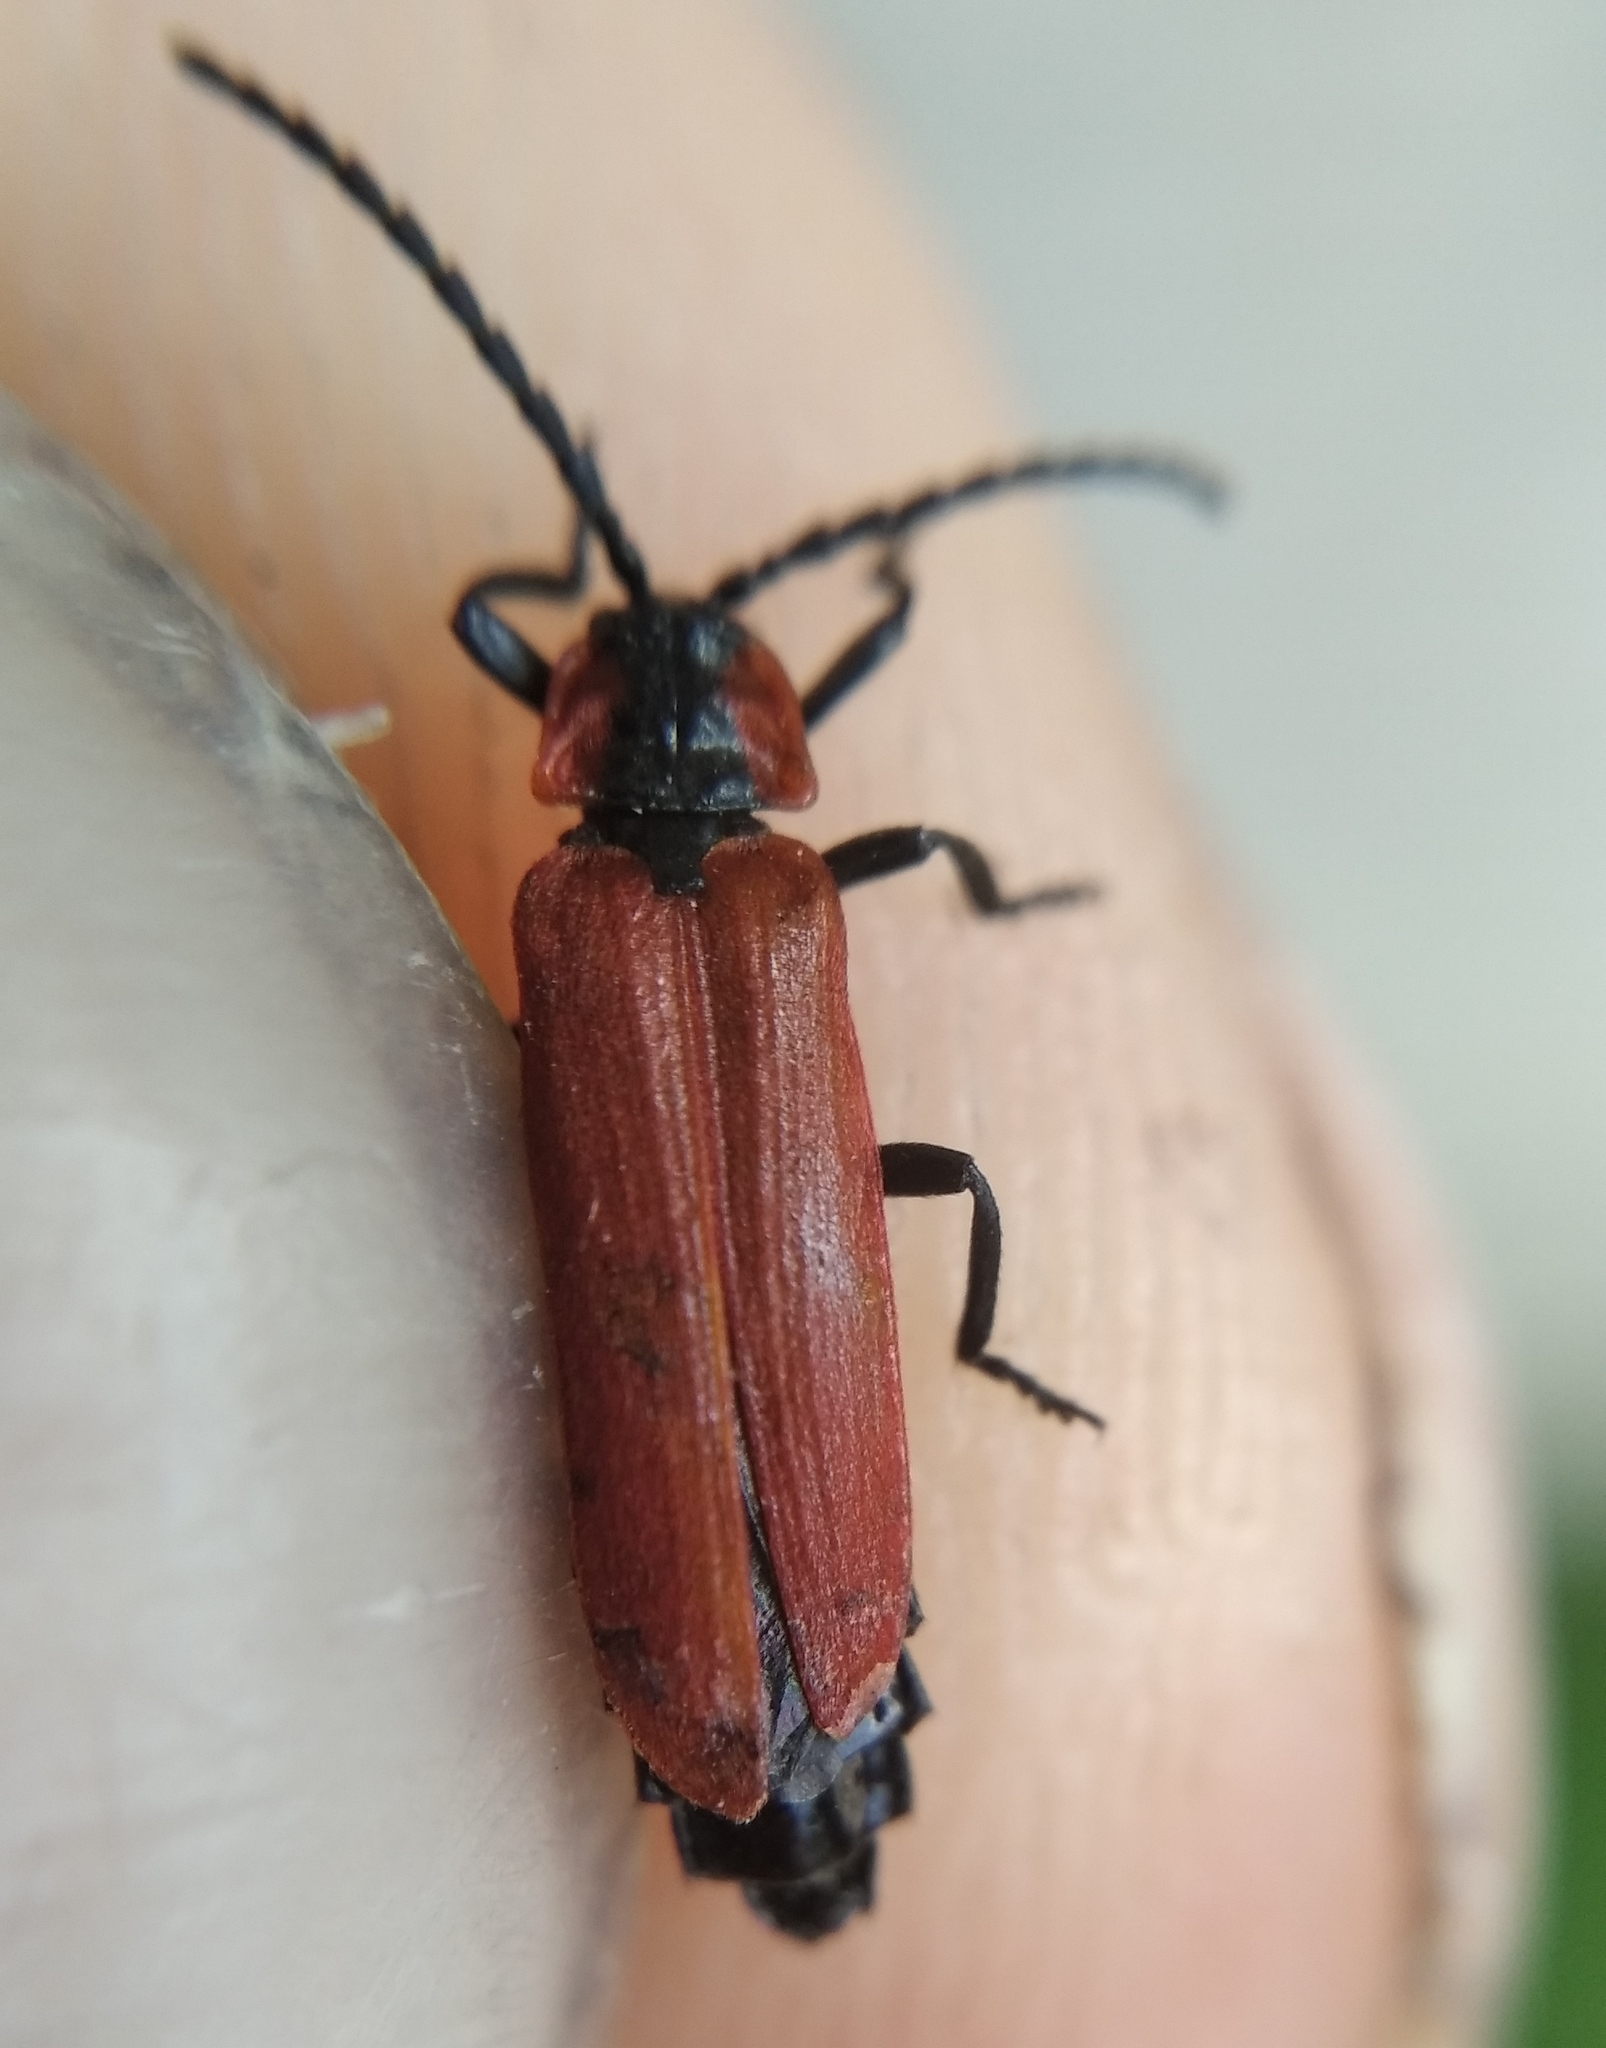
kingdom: Animalia
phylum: Arthropoda
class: Insecta
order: Coleoptera
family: Lycidae
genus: Lygistopterus
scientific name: Lygistopterus sanguineus
